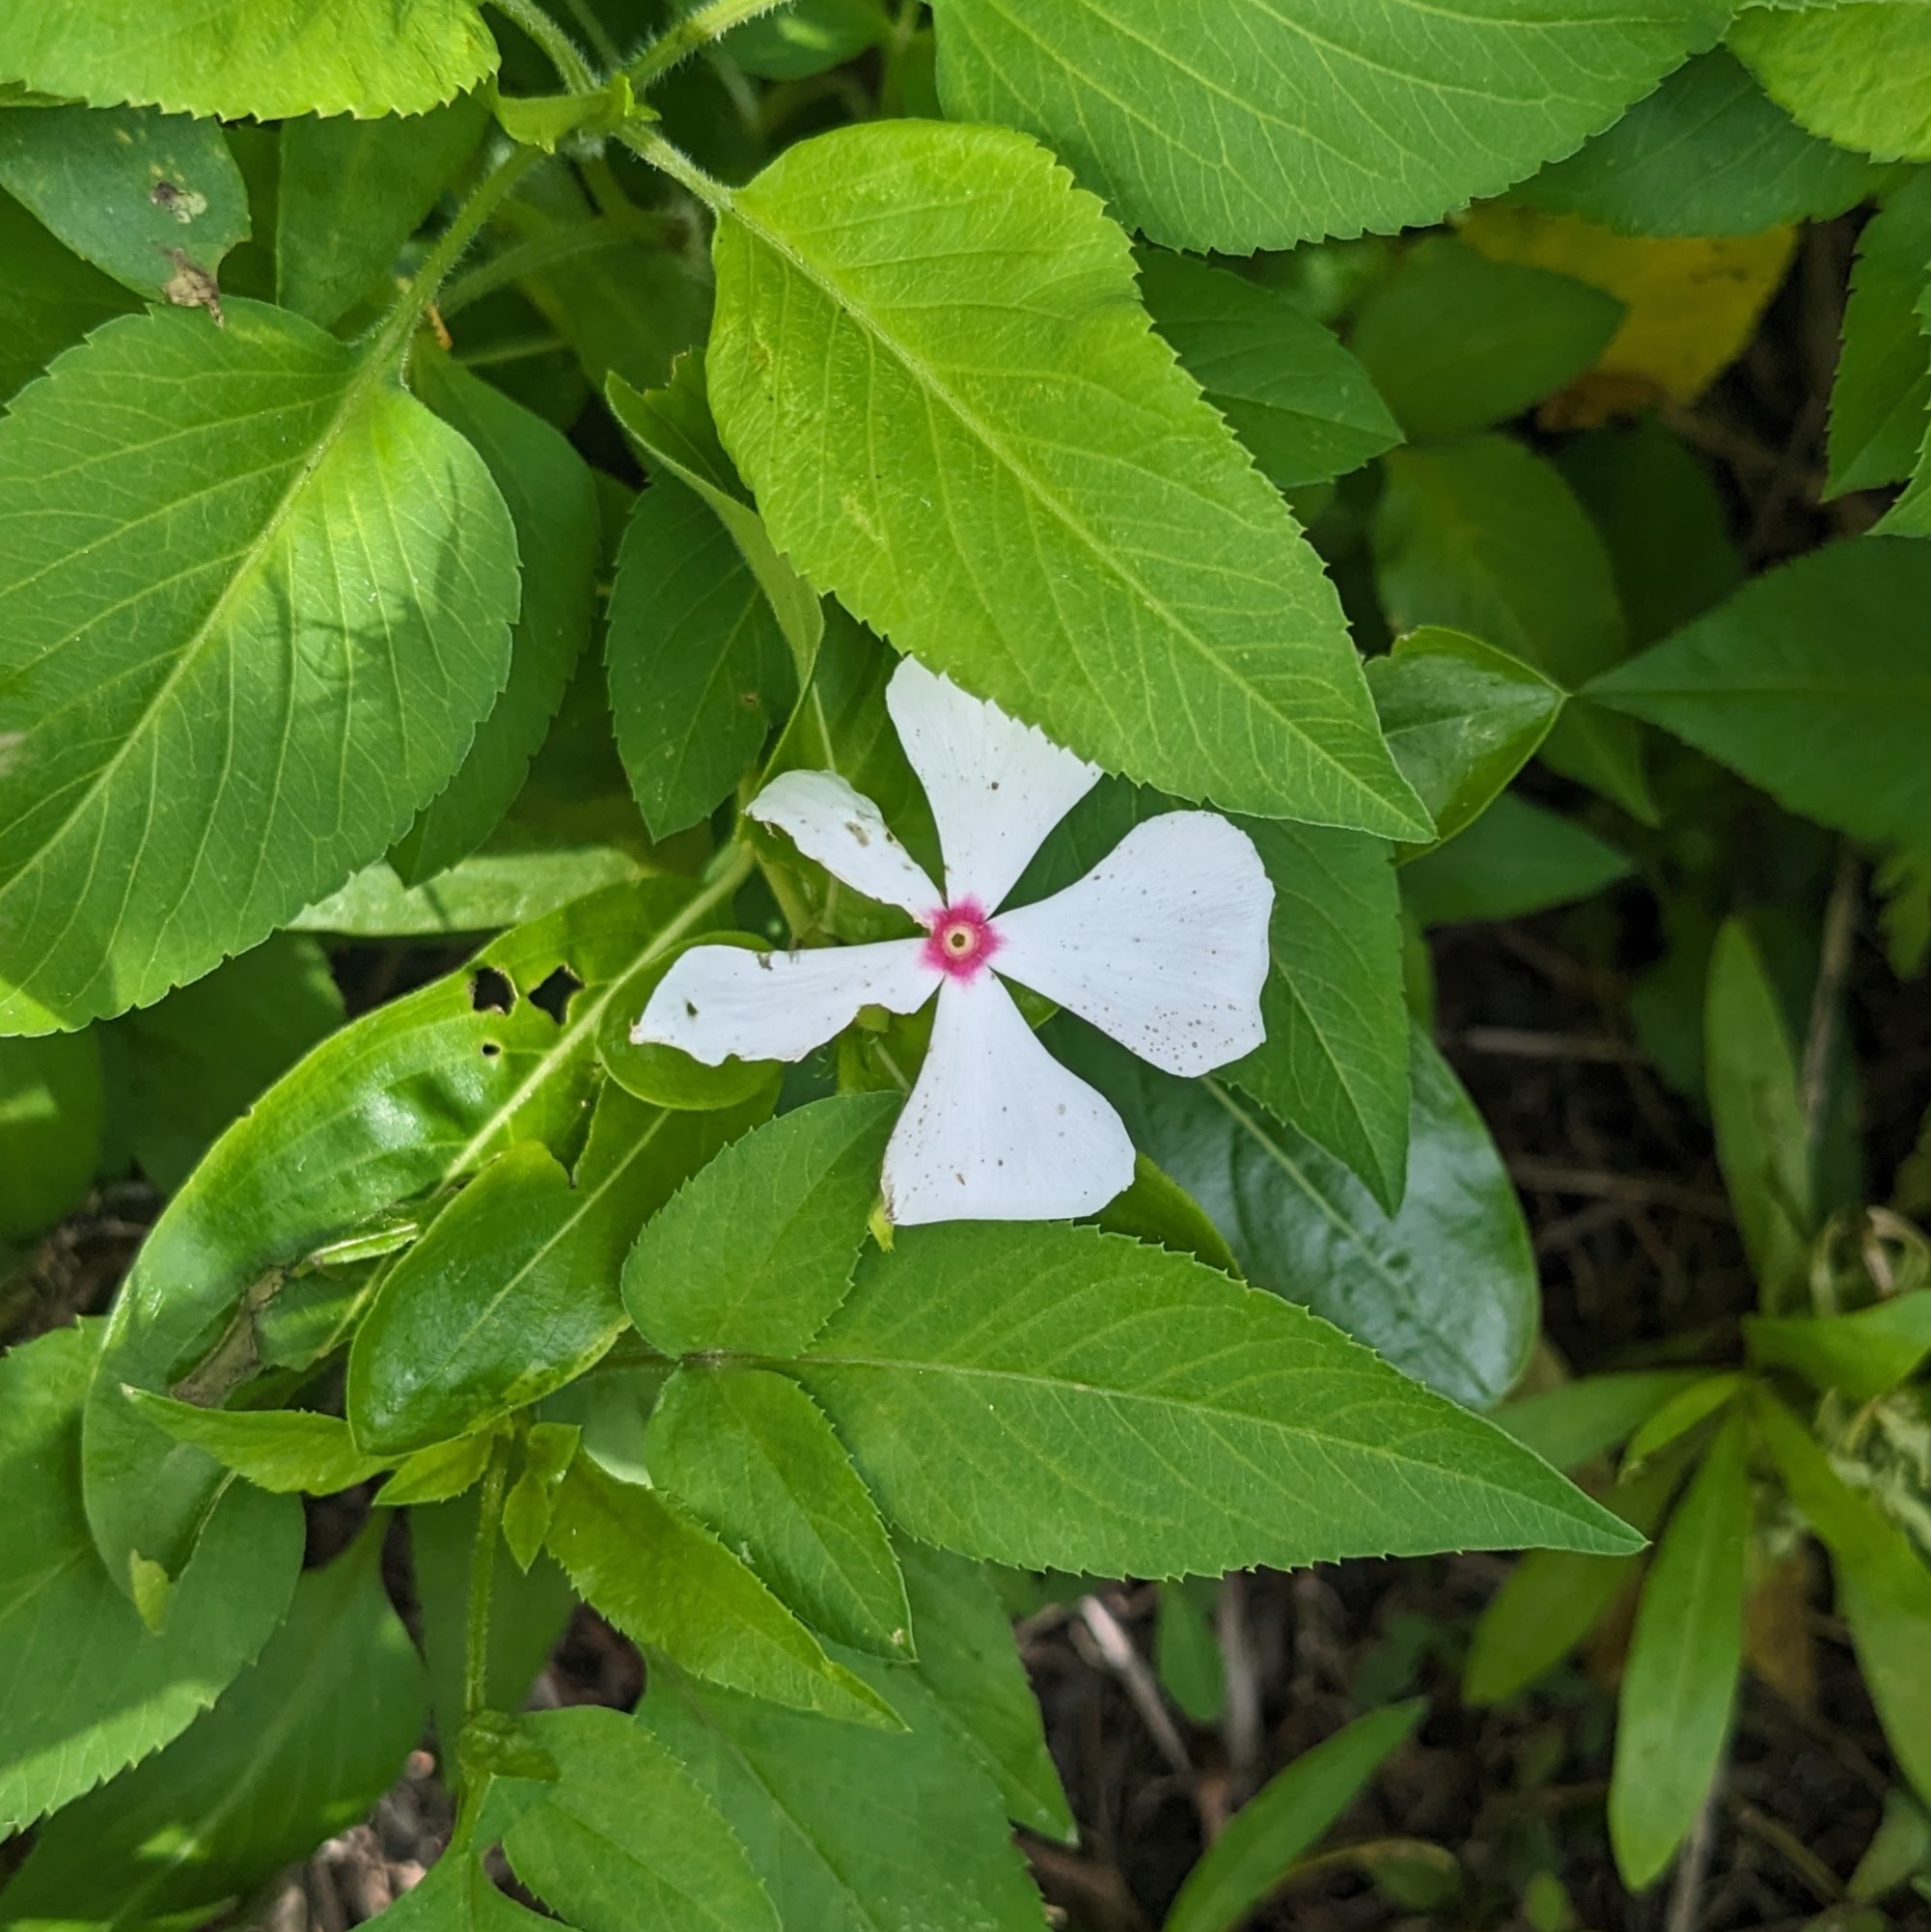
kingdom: Plantae
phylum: Tracheophyta
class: Magnoliopsida
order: Gentianales
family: Apocynaceae
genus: Catharanthus
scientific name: Catharanthus roseus
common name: Madagascar periwinkle
